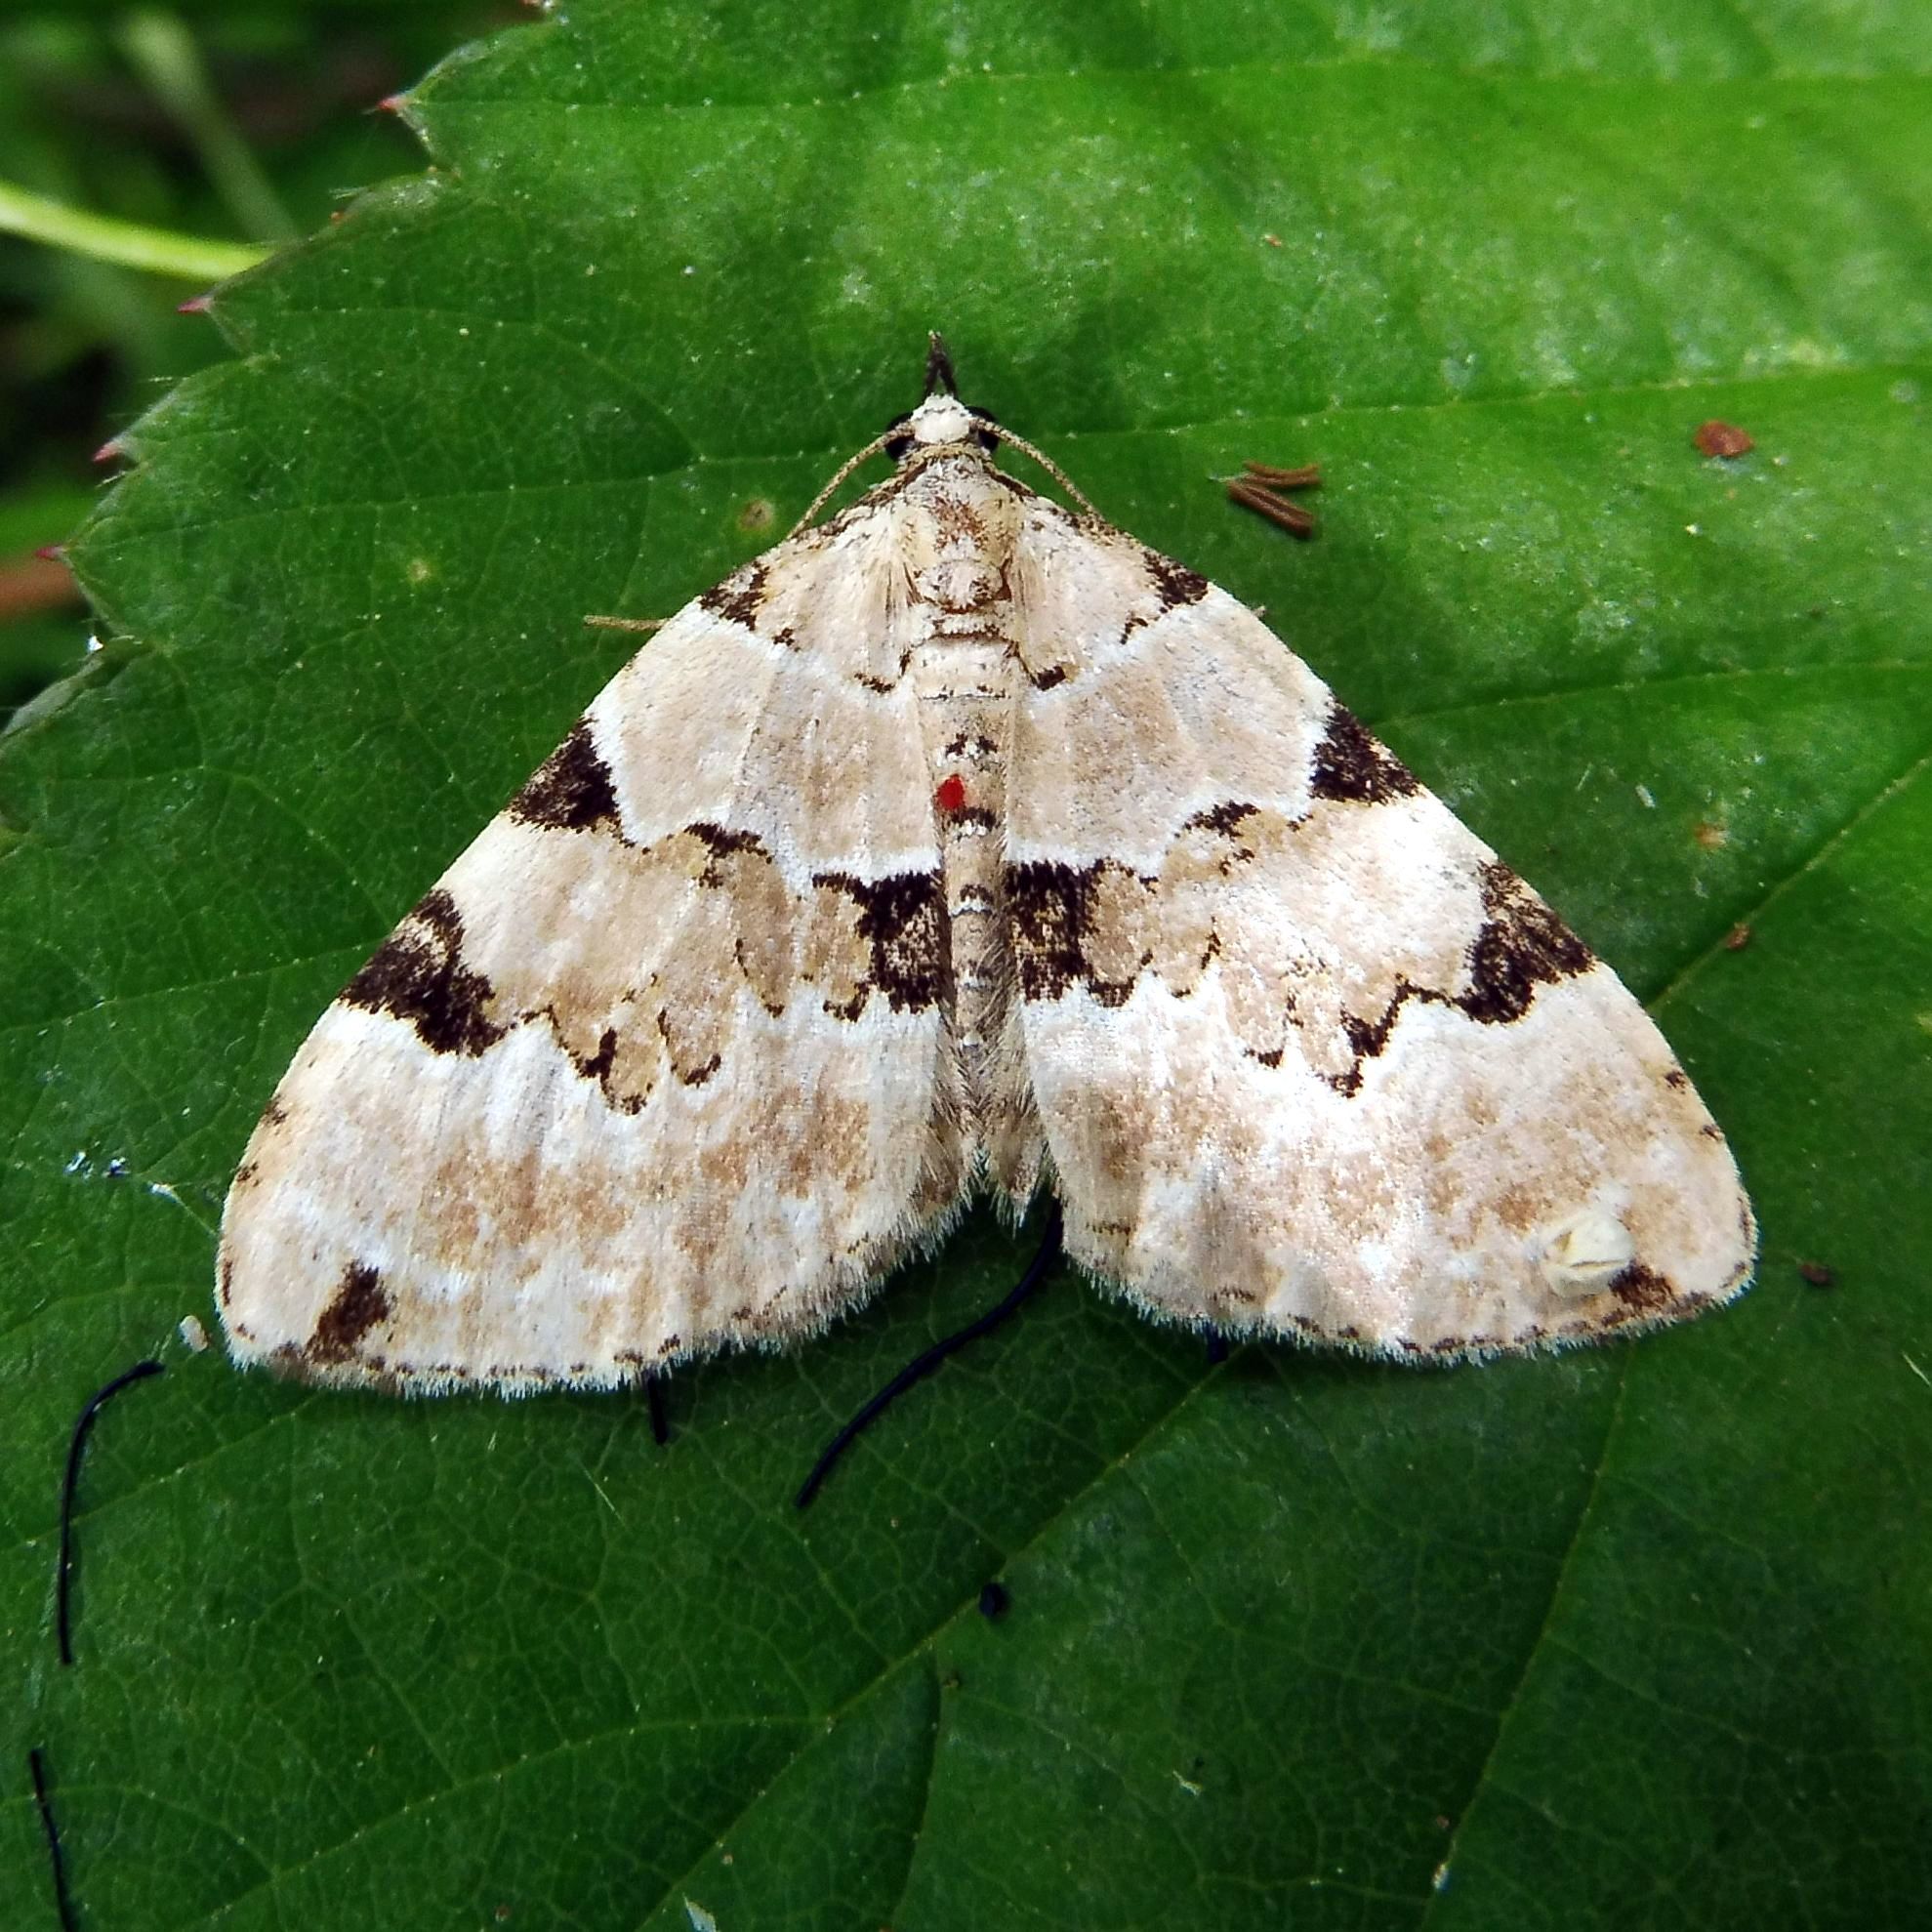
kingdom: Animalia
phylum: Arthropoda
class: Insecta
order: Lepidoptera
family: Geometridae
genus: Colostygia
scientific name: Colostygia pectinataria
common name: Green carpet
